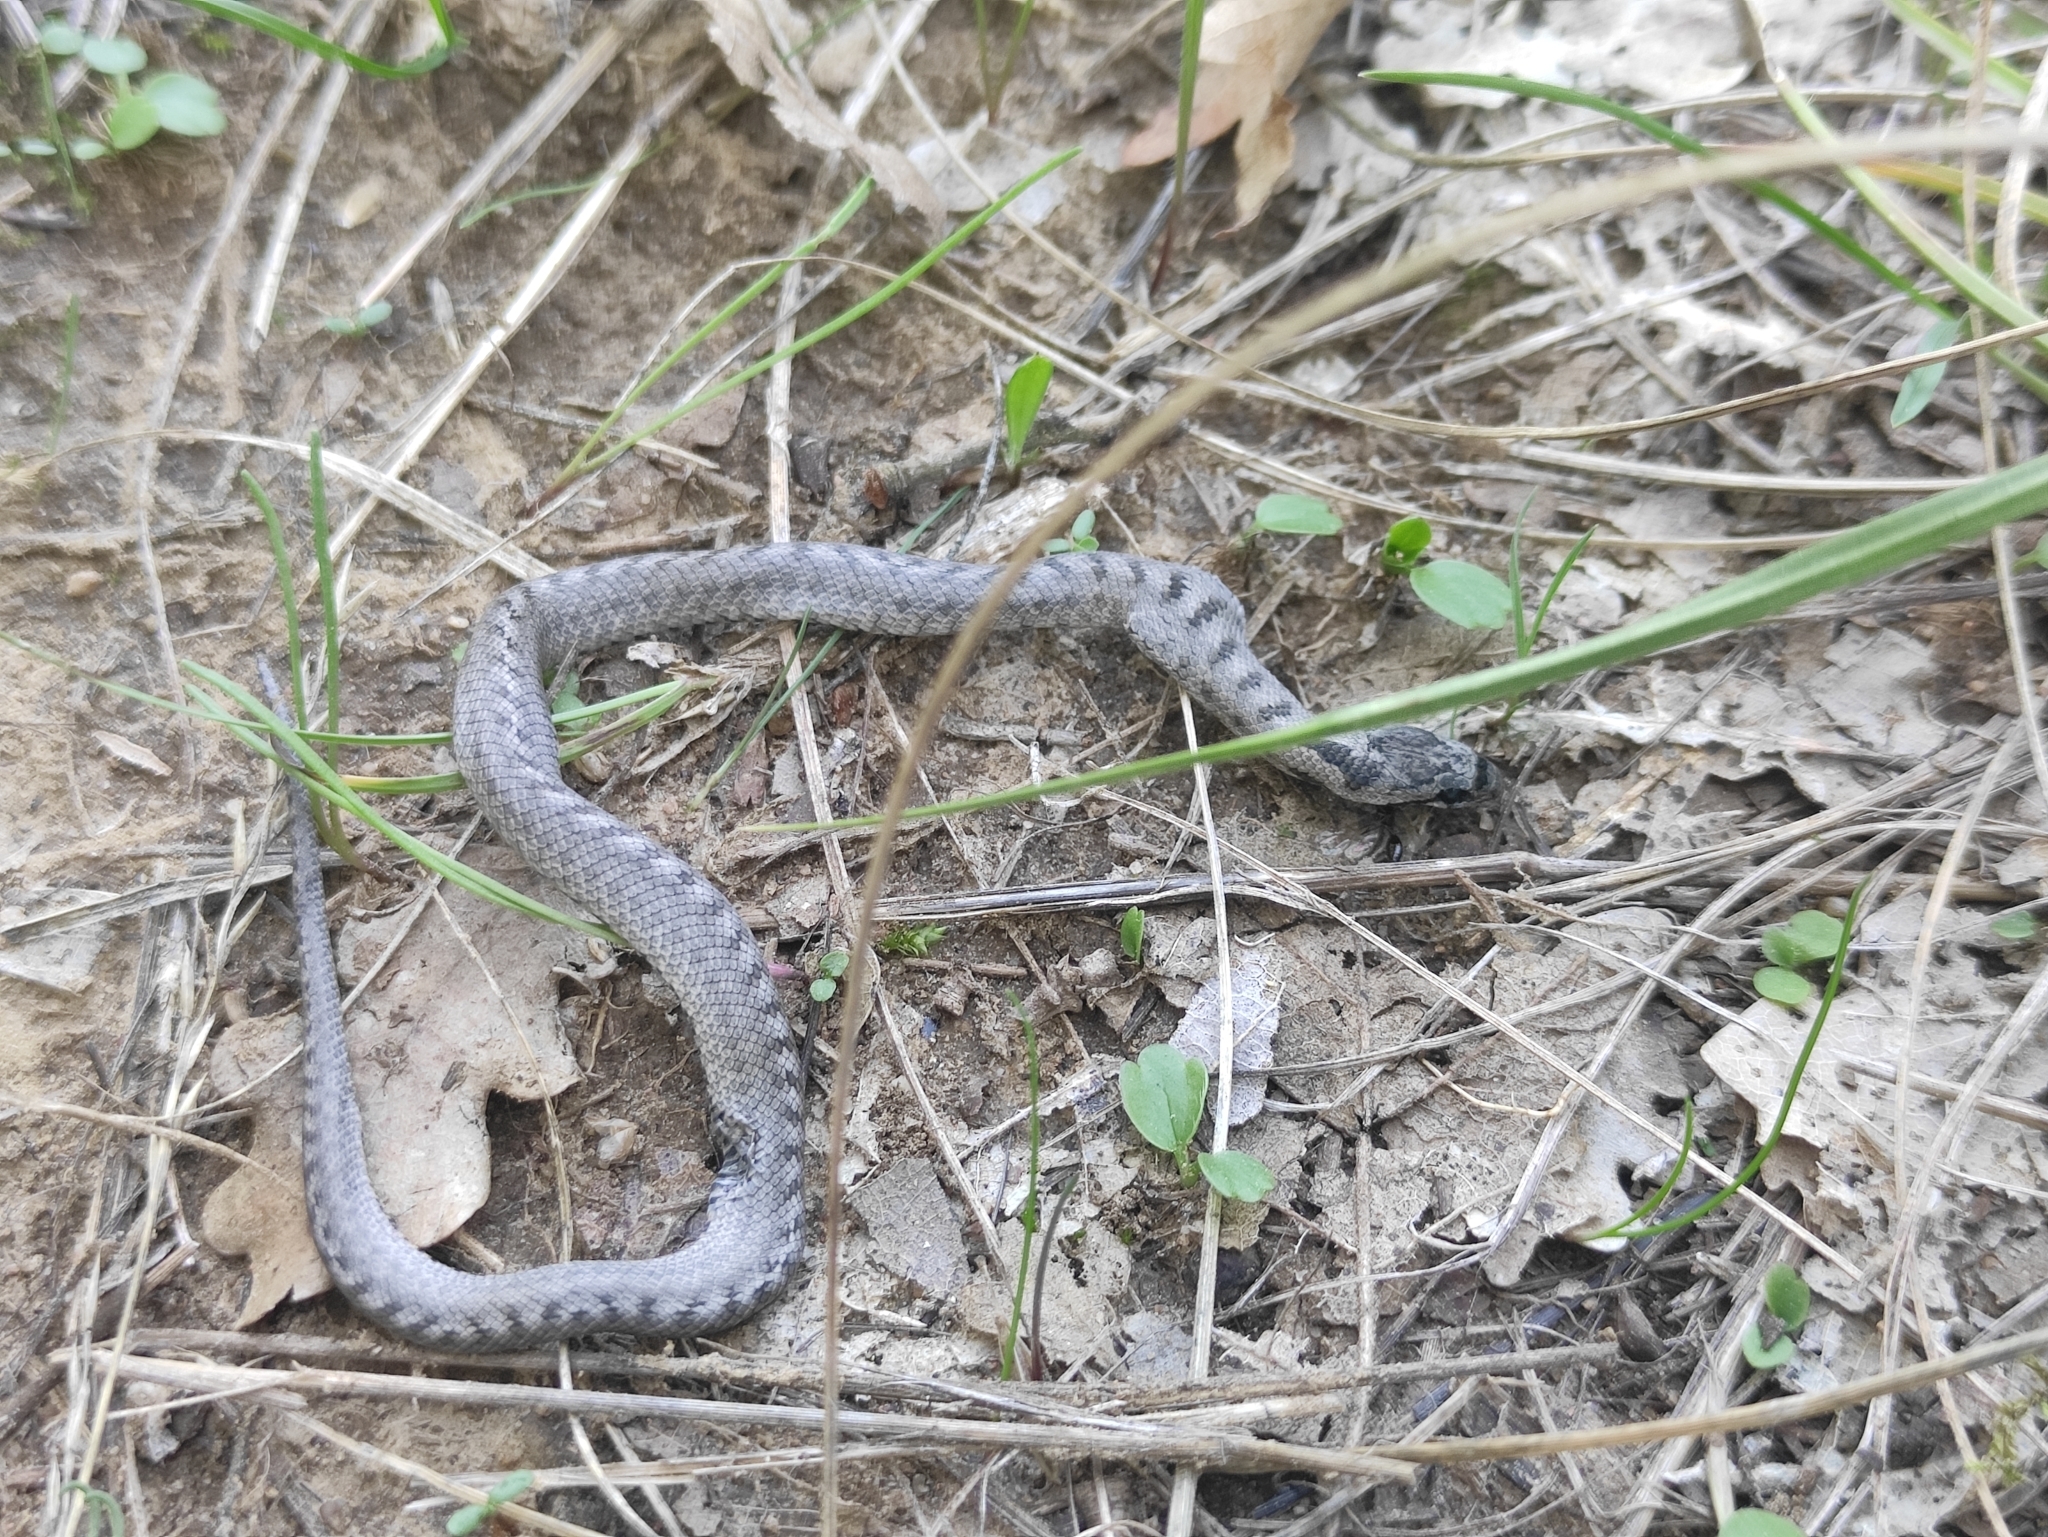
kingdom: Animalia
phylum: Chordata
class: Squamata
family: Colubridae
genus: Coronella
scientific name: Coronella girondica
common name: Southern smooth snake
